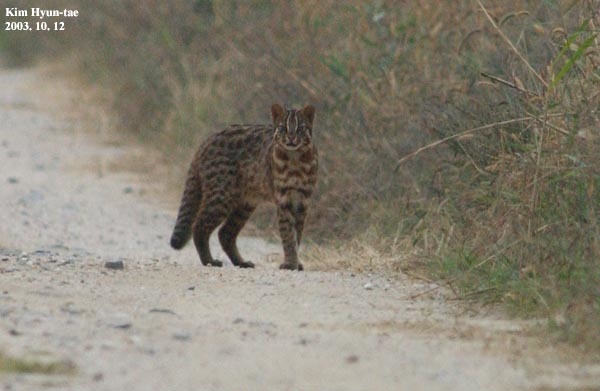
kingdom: Animalia
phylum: Chordata
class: Mammalia
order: Carnivora
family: Felidae
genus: Prionailurus
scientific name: Prionailurus bengalensis
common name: Leopard cat
